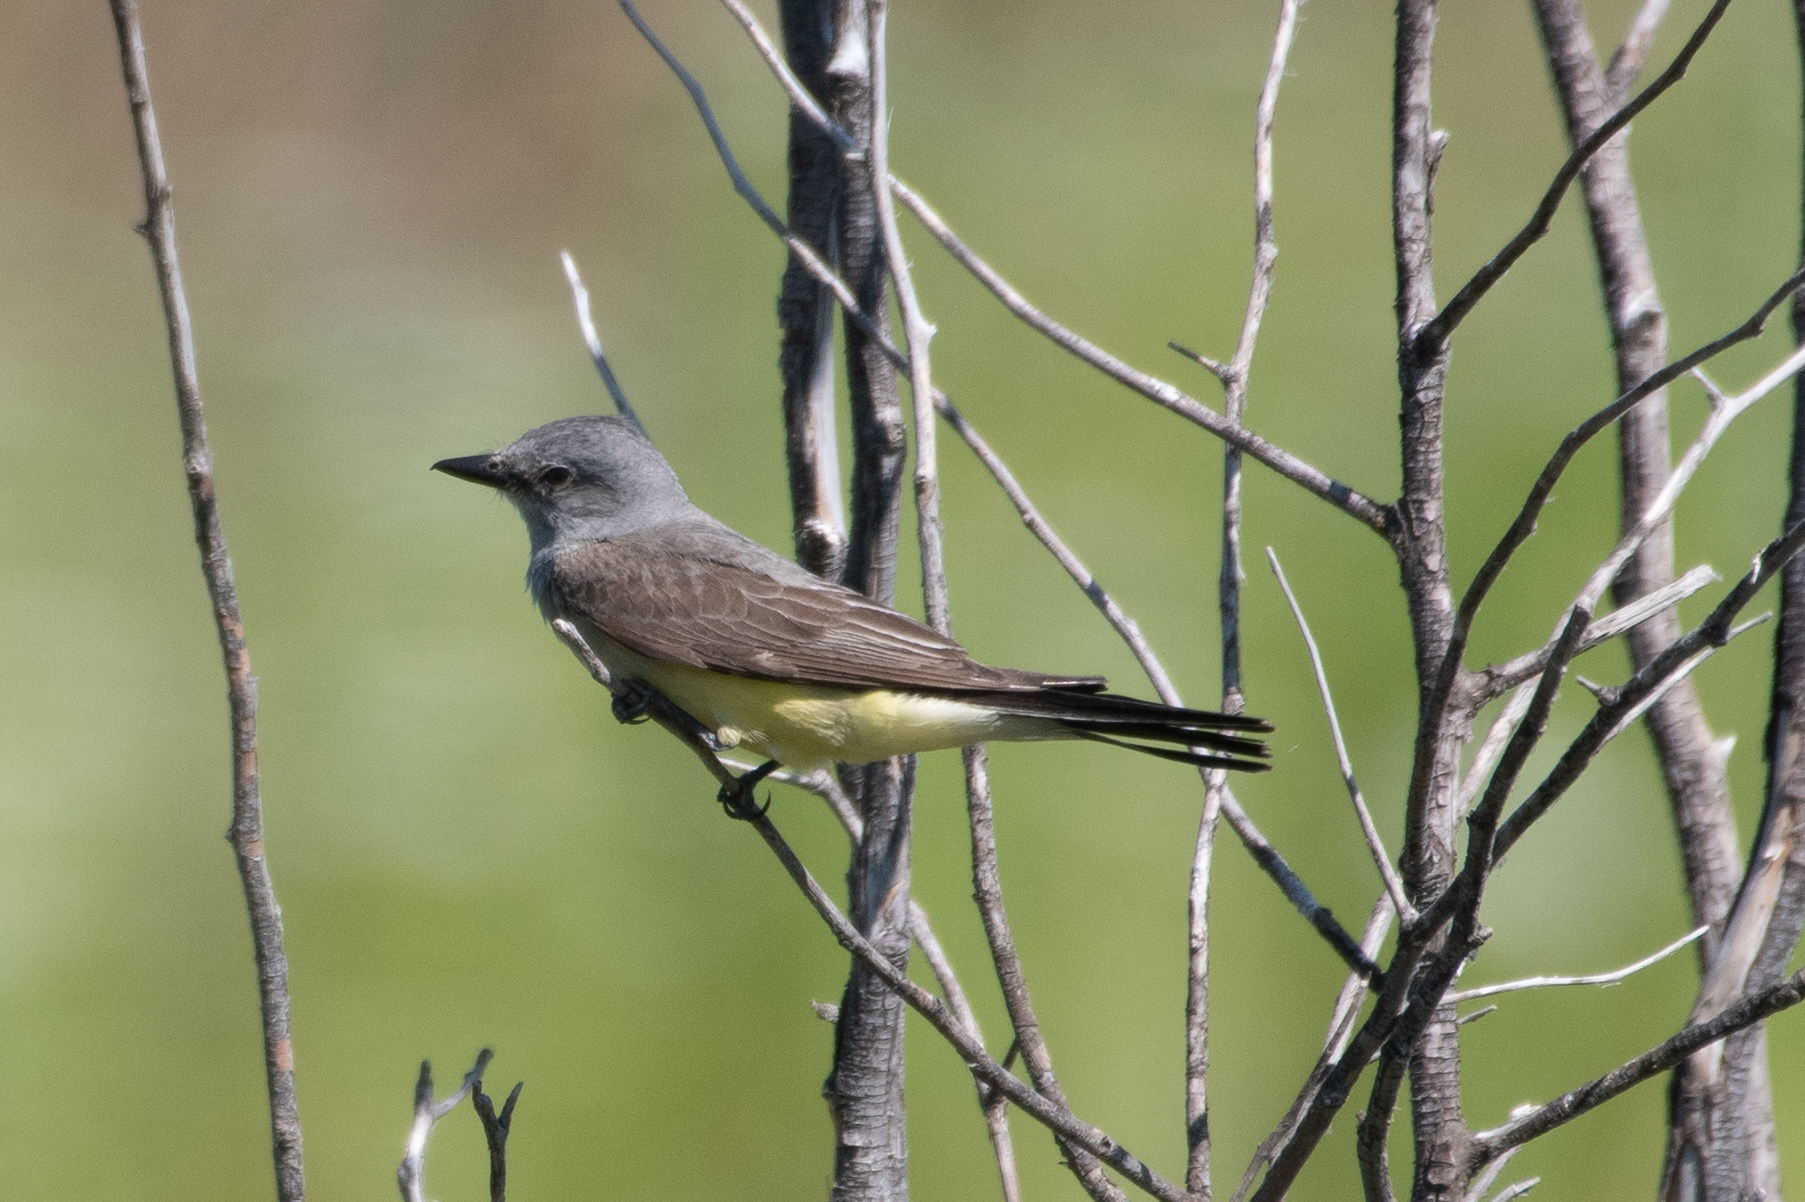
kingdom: Animalia
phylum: Chordata
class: Aves
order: Passeriformes
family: Tyrannidae
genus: Tyrannus
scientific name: Tyrannus verticalis
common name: Western kingbird
